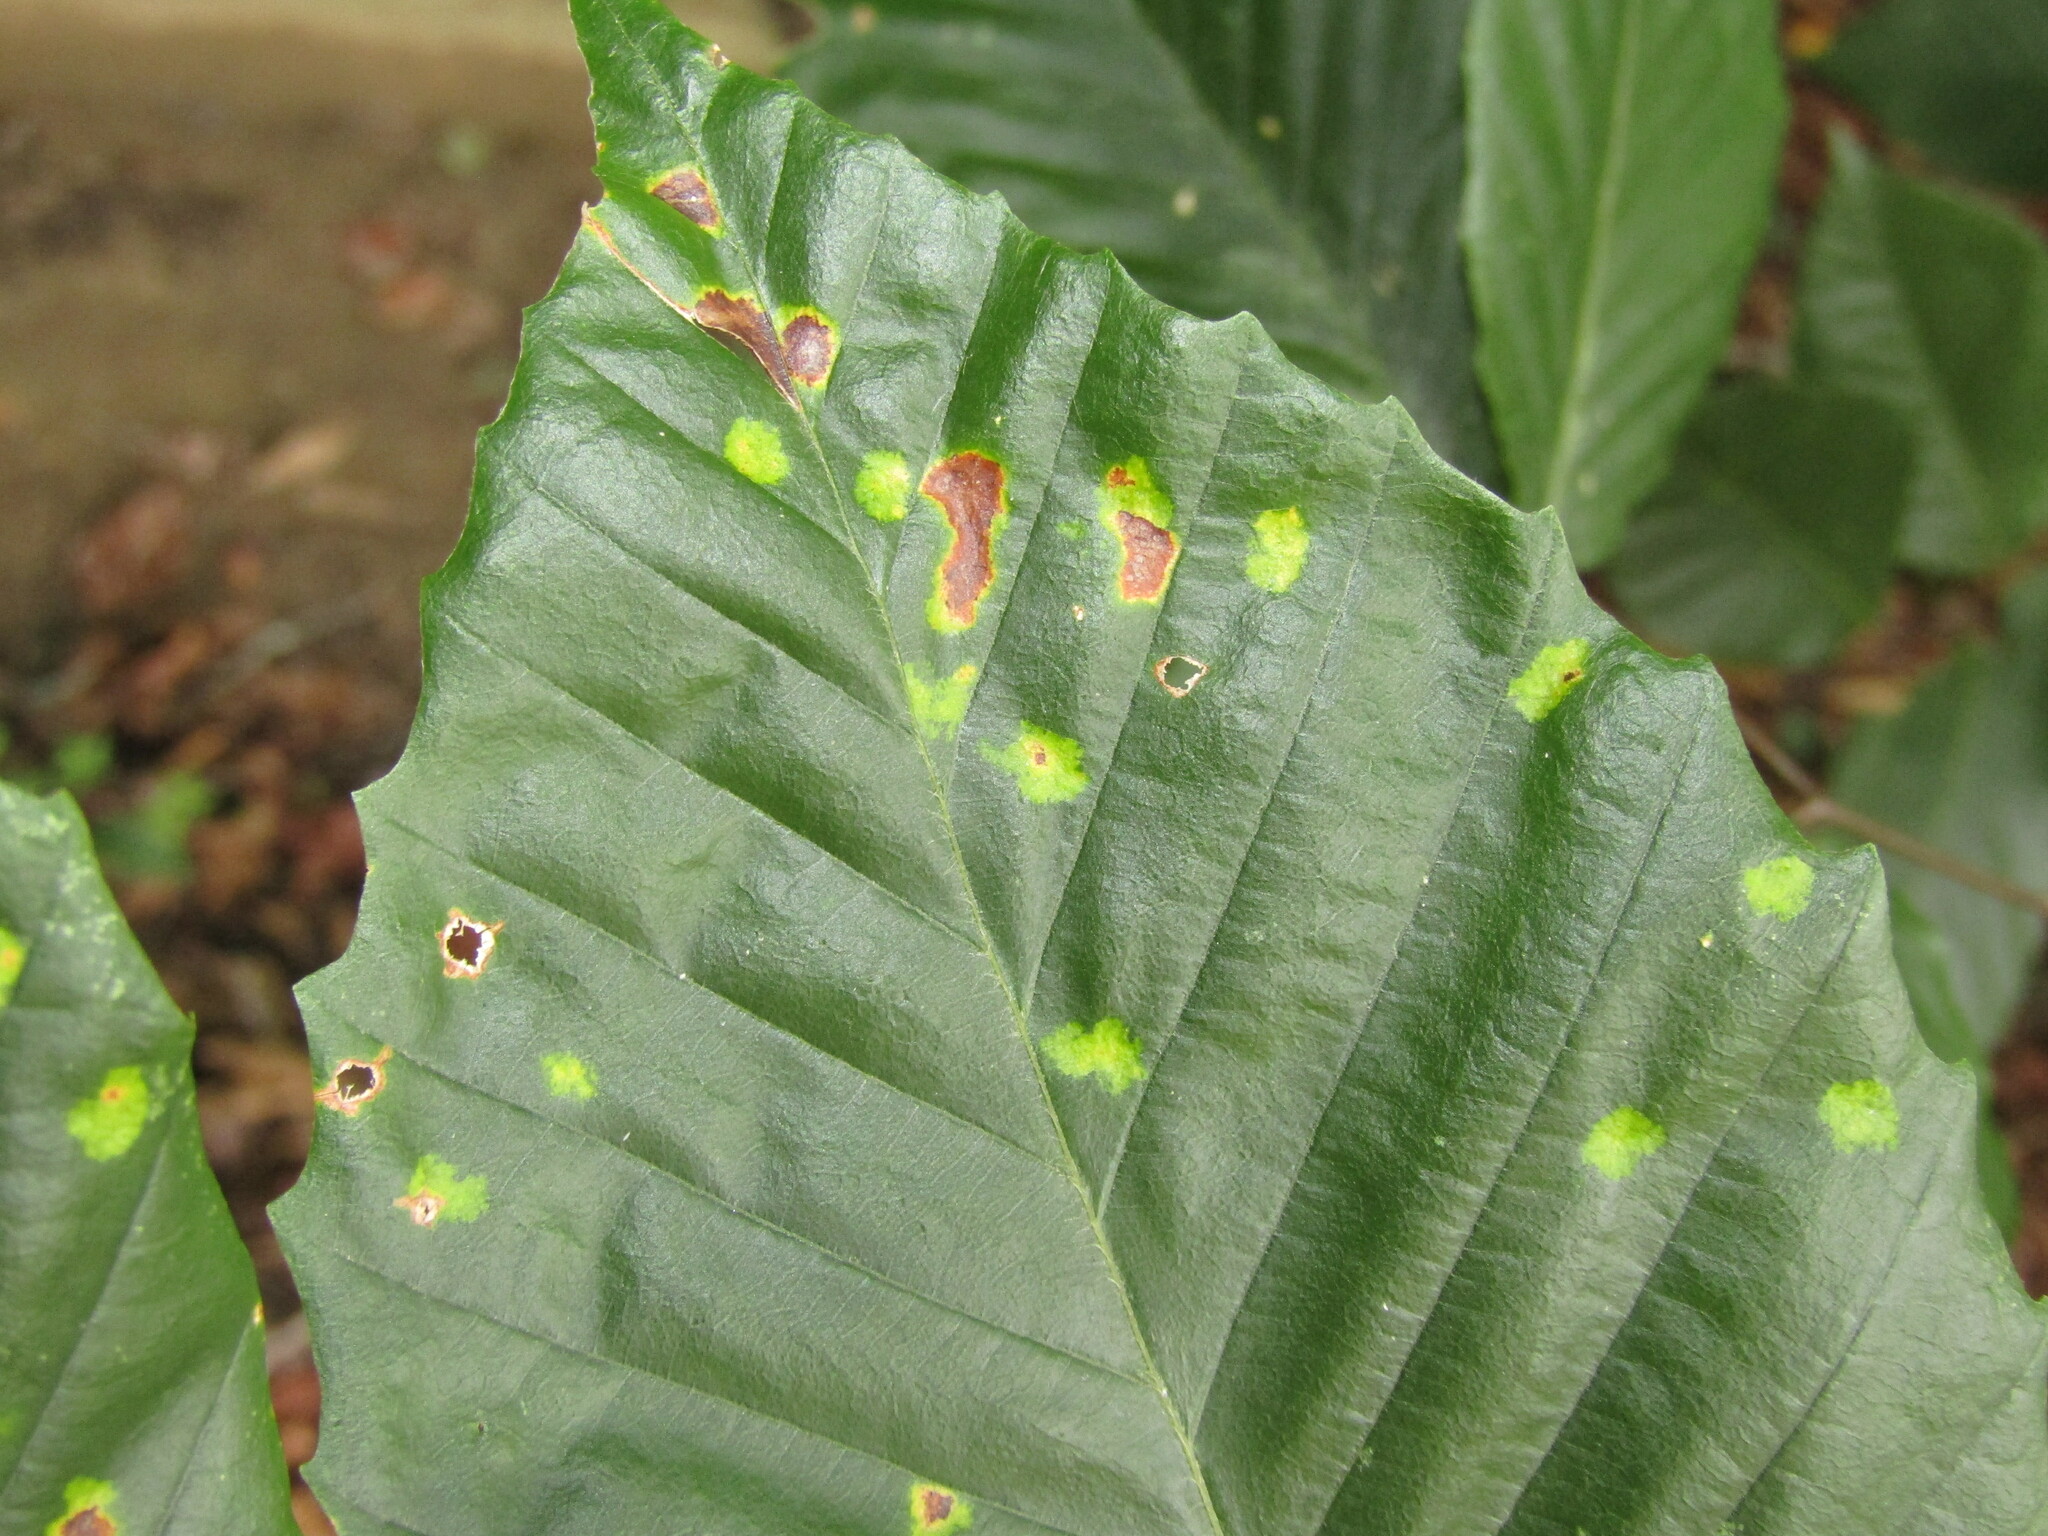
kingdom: Animalia
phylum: Arthropoda
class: Arachnida
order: Trombidiformes
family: Eriophyidae
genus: Acalitus
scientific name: Acalitus
